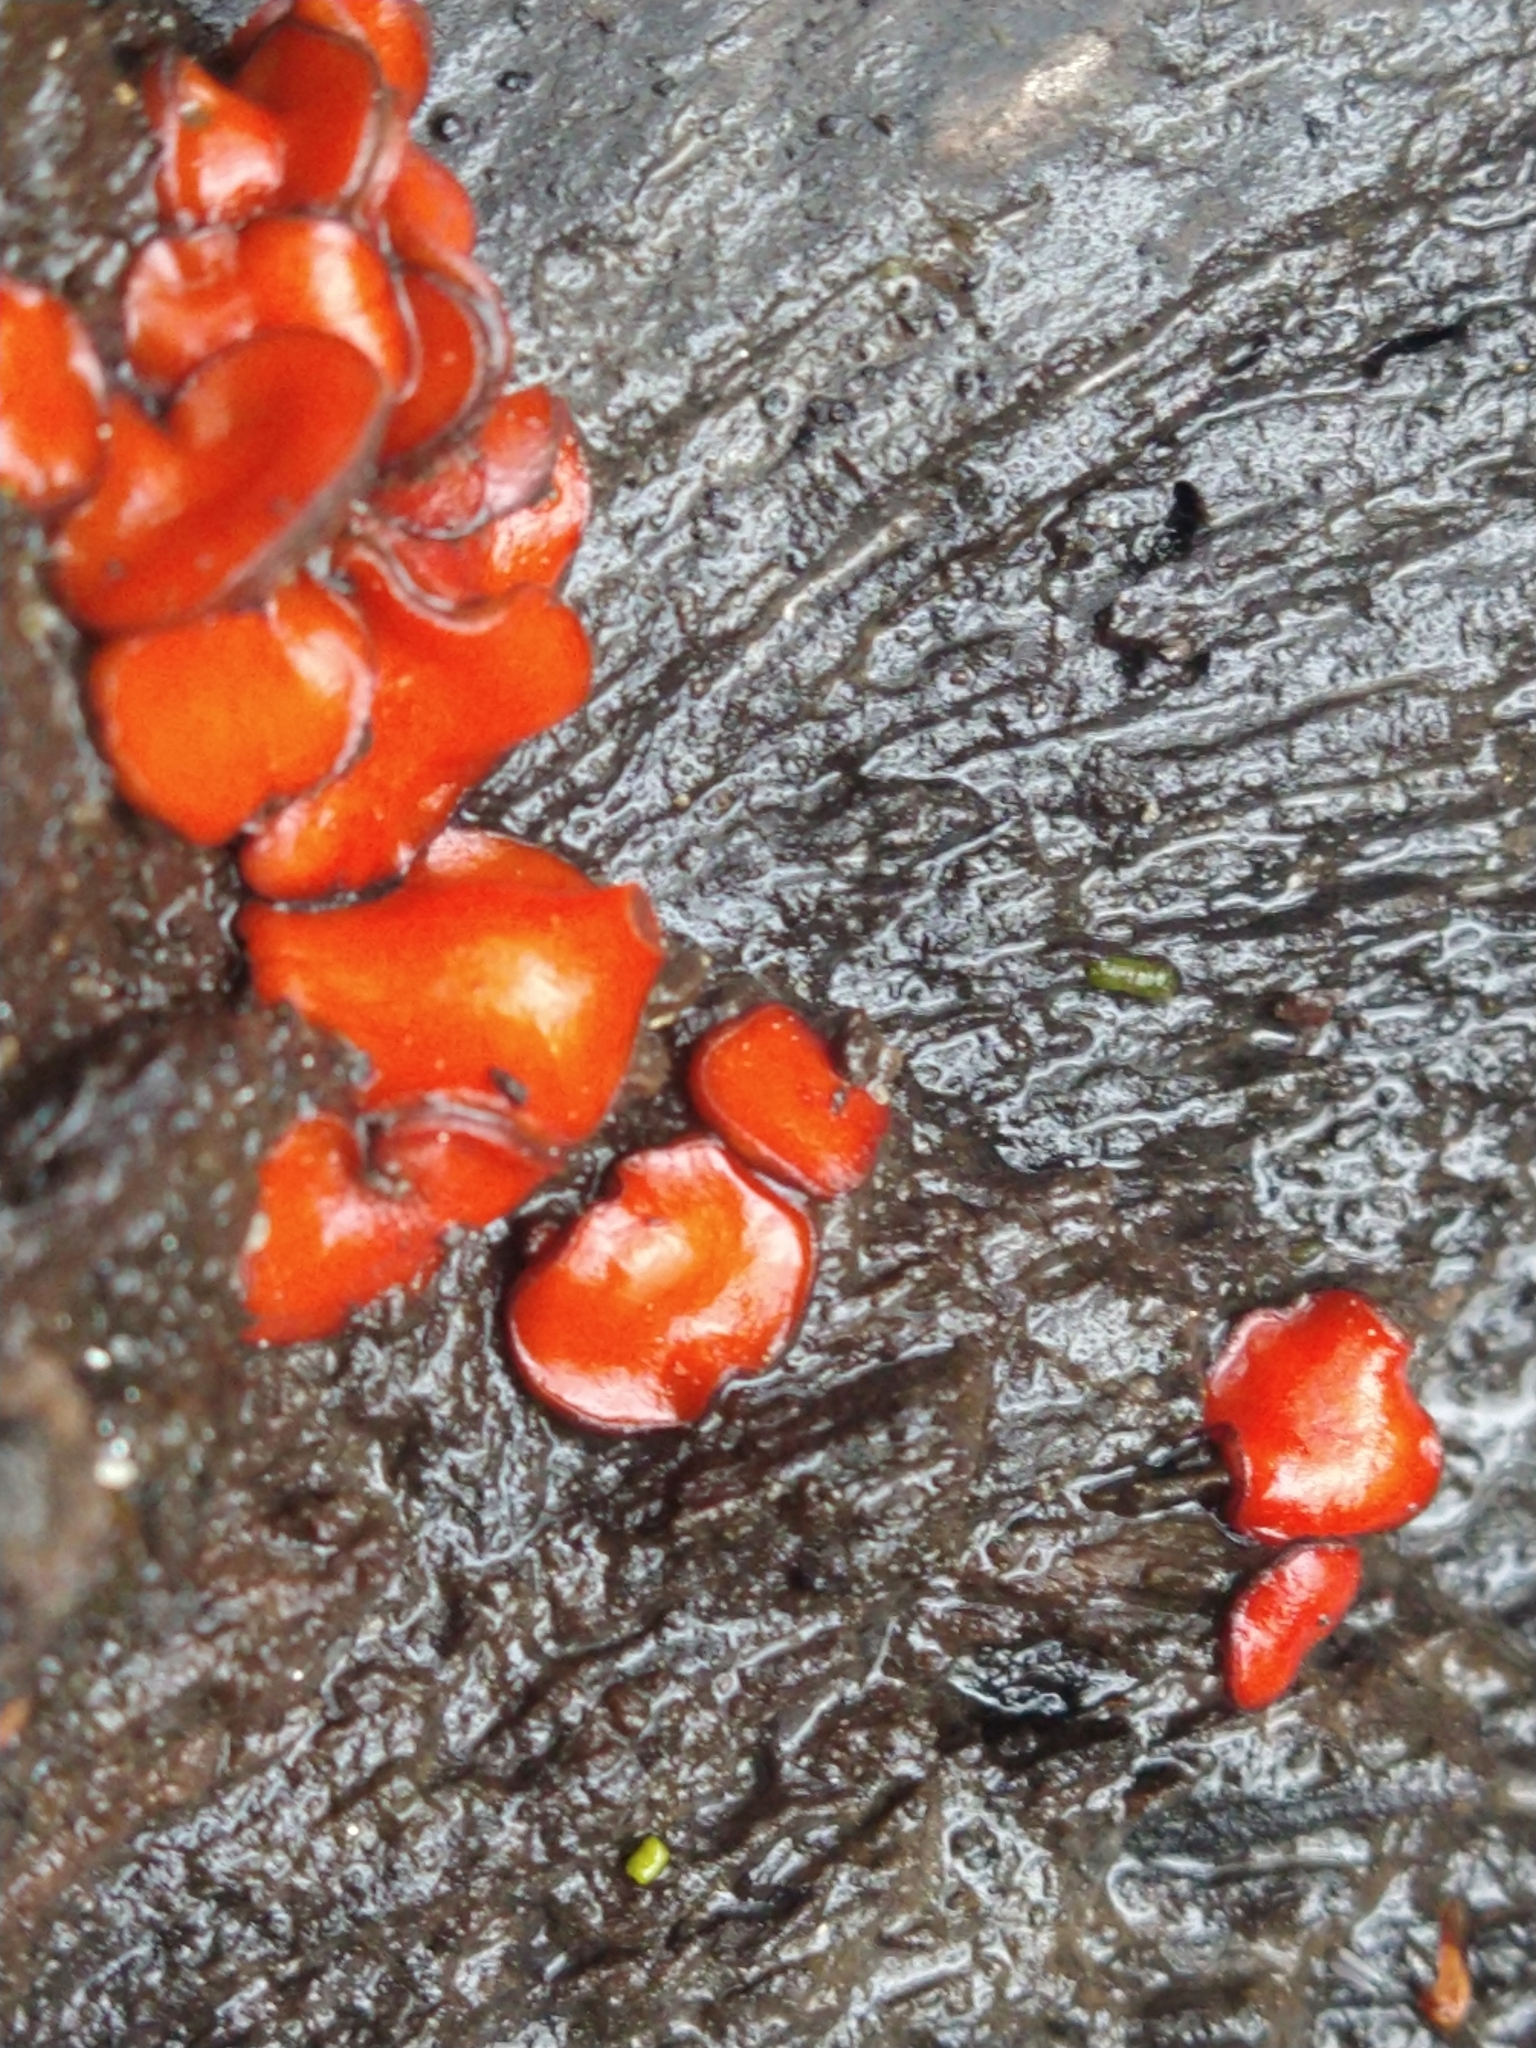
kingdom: Fungi
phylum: Ascomycota
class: Pezizomycetes
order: Pezizales
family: Pyronemataceae
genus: Scutellinia
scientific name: Scutellinia scutellata
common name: Common eyelash
